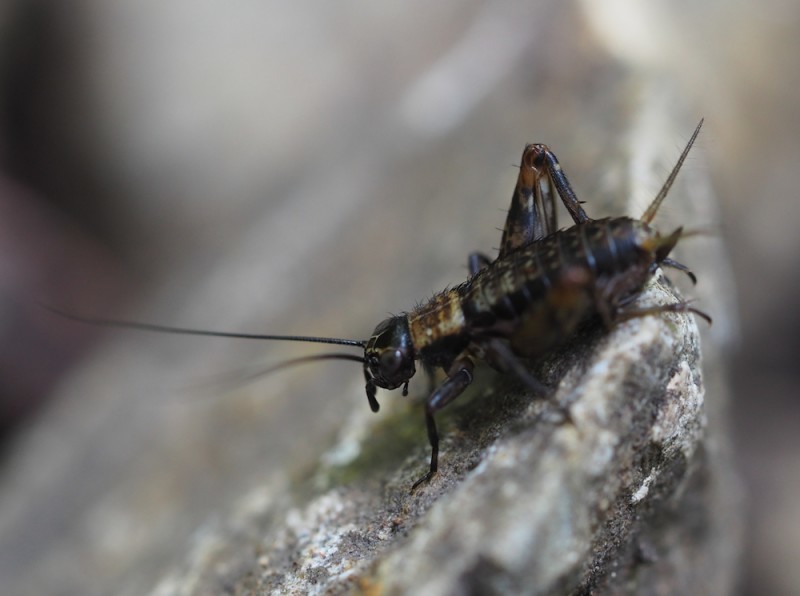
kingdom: Animalia
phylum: Arthropoda
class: Insecta
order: Orthoptera
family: Trigonidiidae
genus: Nemobius
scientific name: Nemobius sylvestris
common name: Wood-cricket
